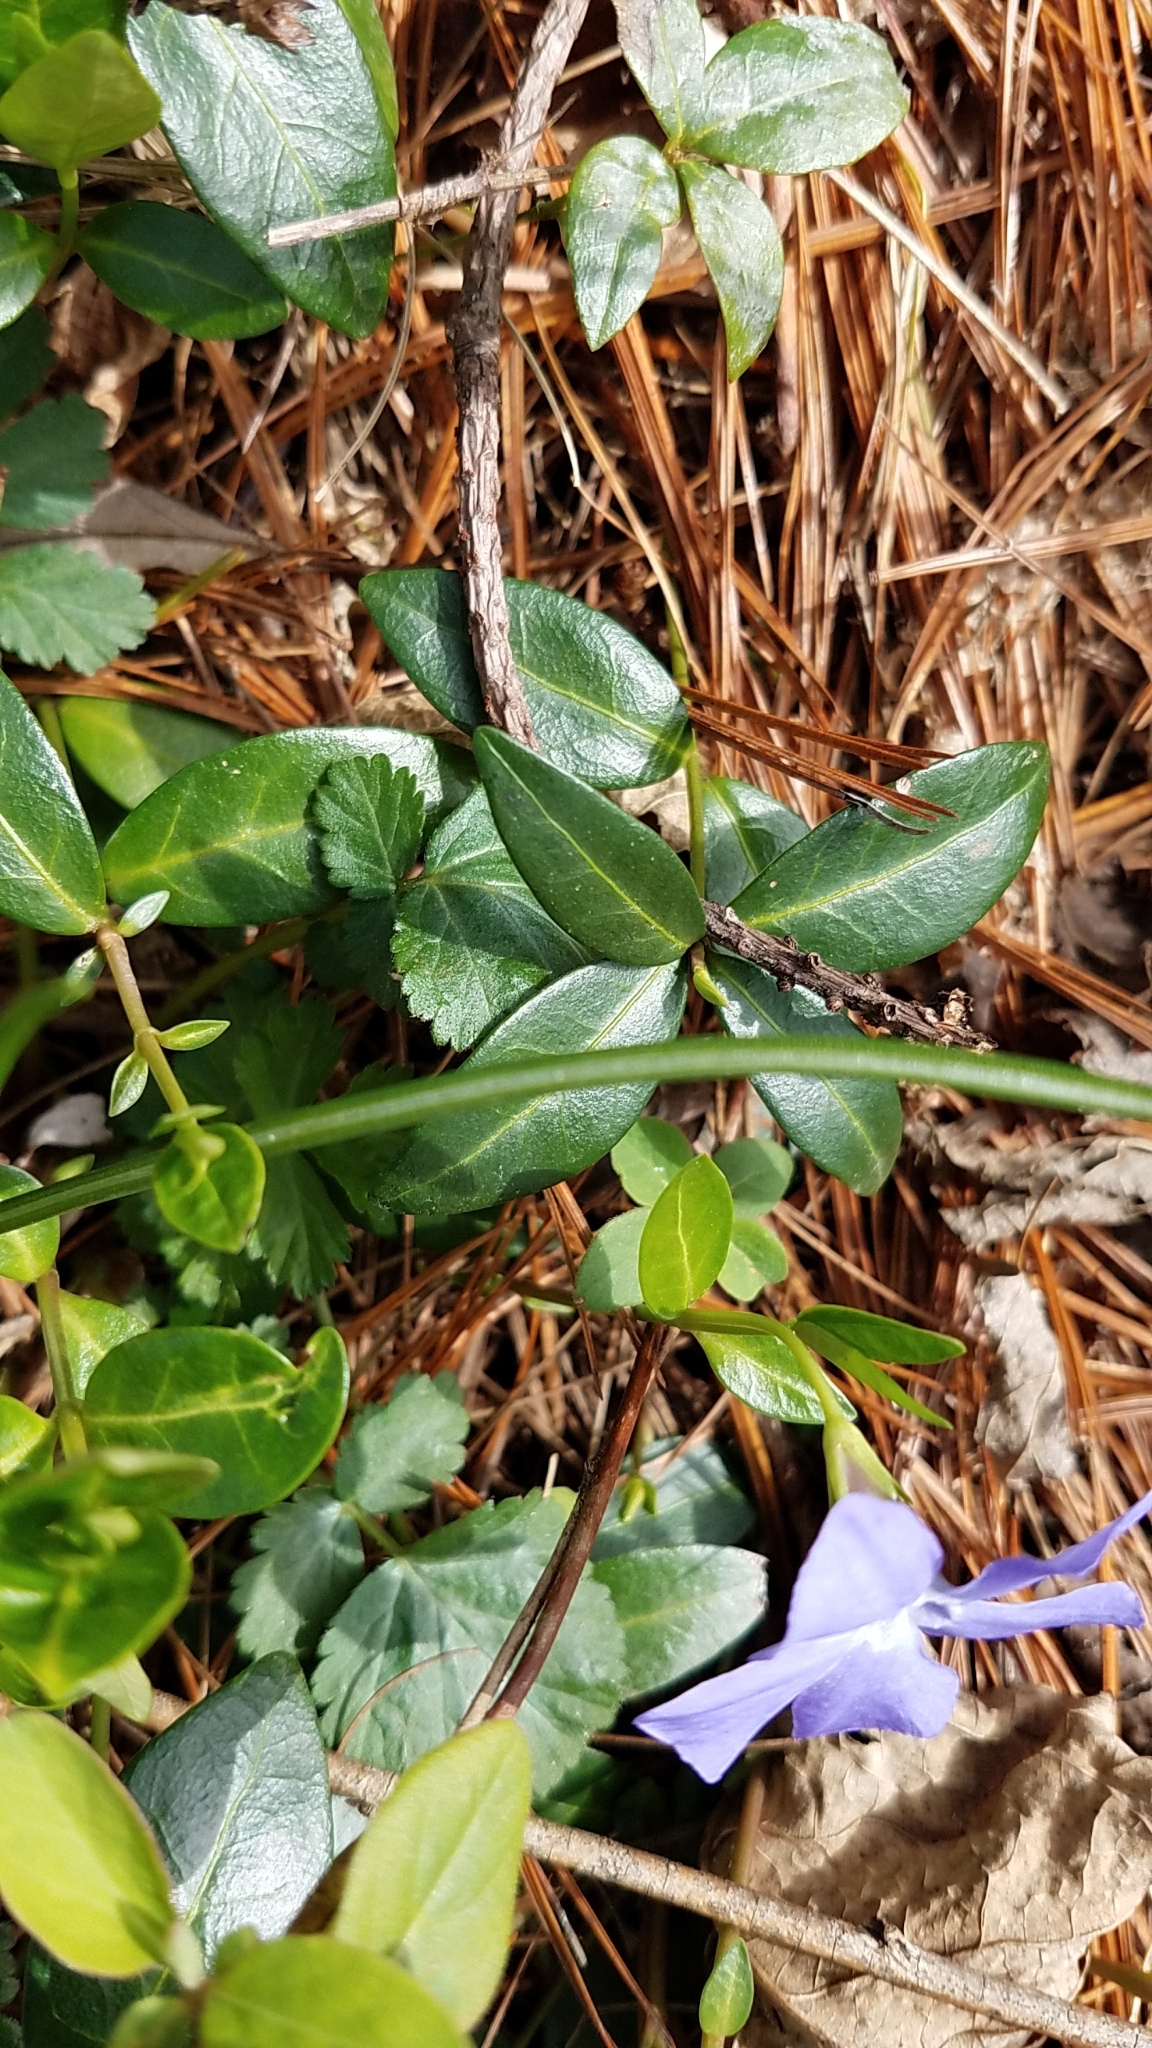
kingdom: Plantae
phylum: Tracheophyta
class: Magnoliopsida
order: Gentianales
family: Apocynaceae
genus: Vinca
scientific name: Vinca minor
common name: Lesser periwinkle
